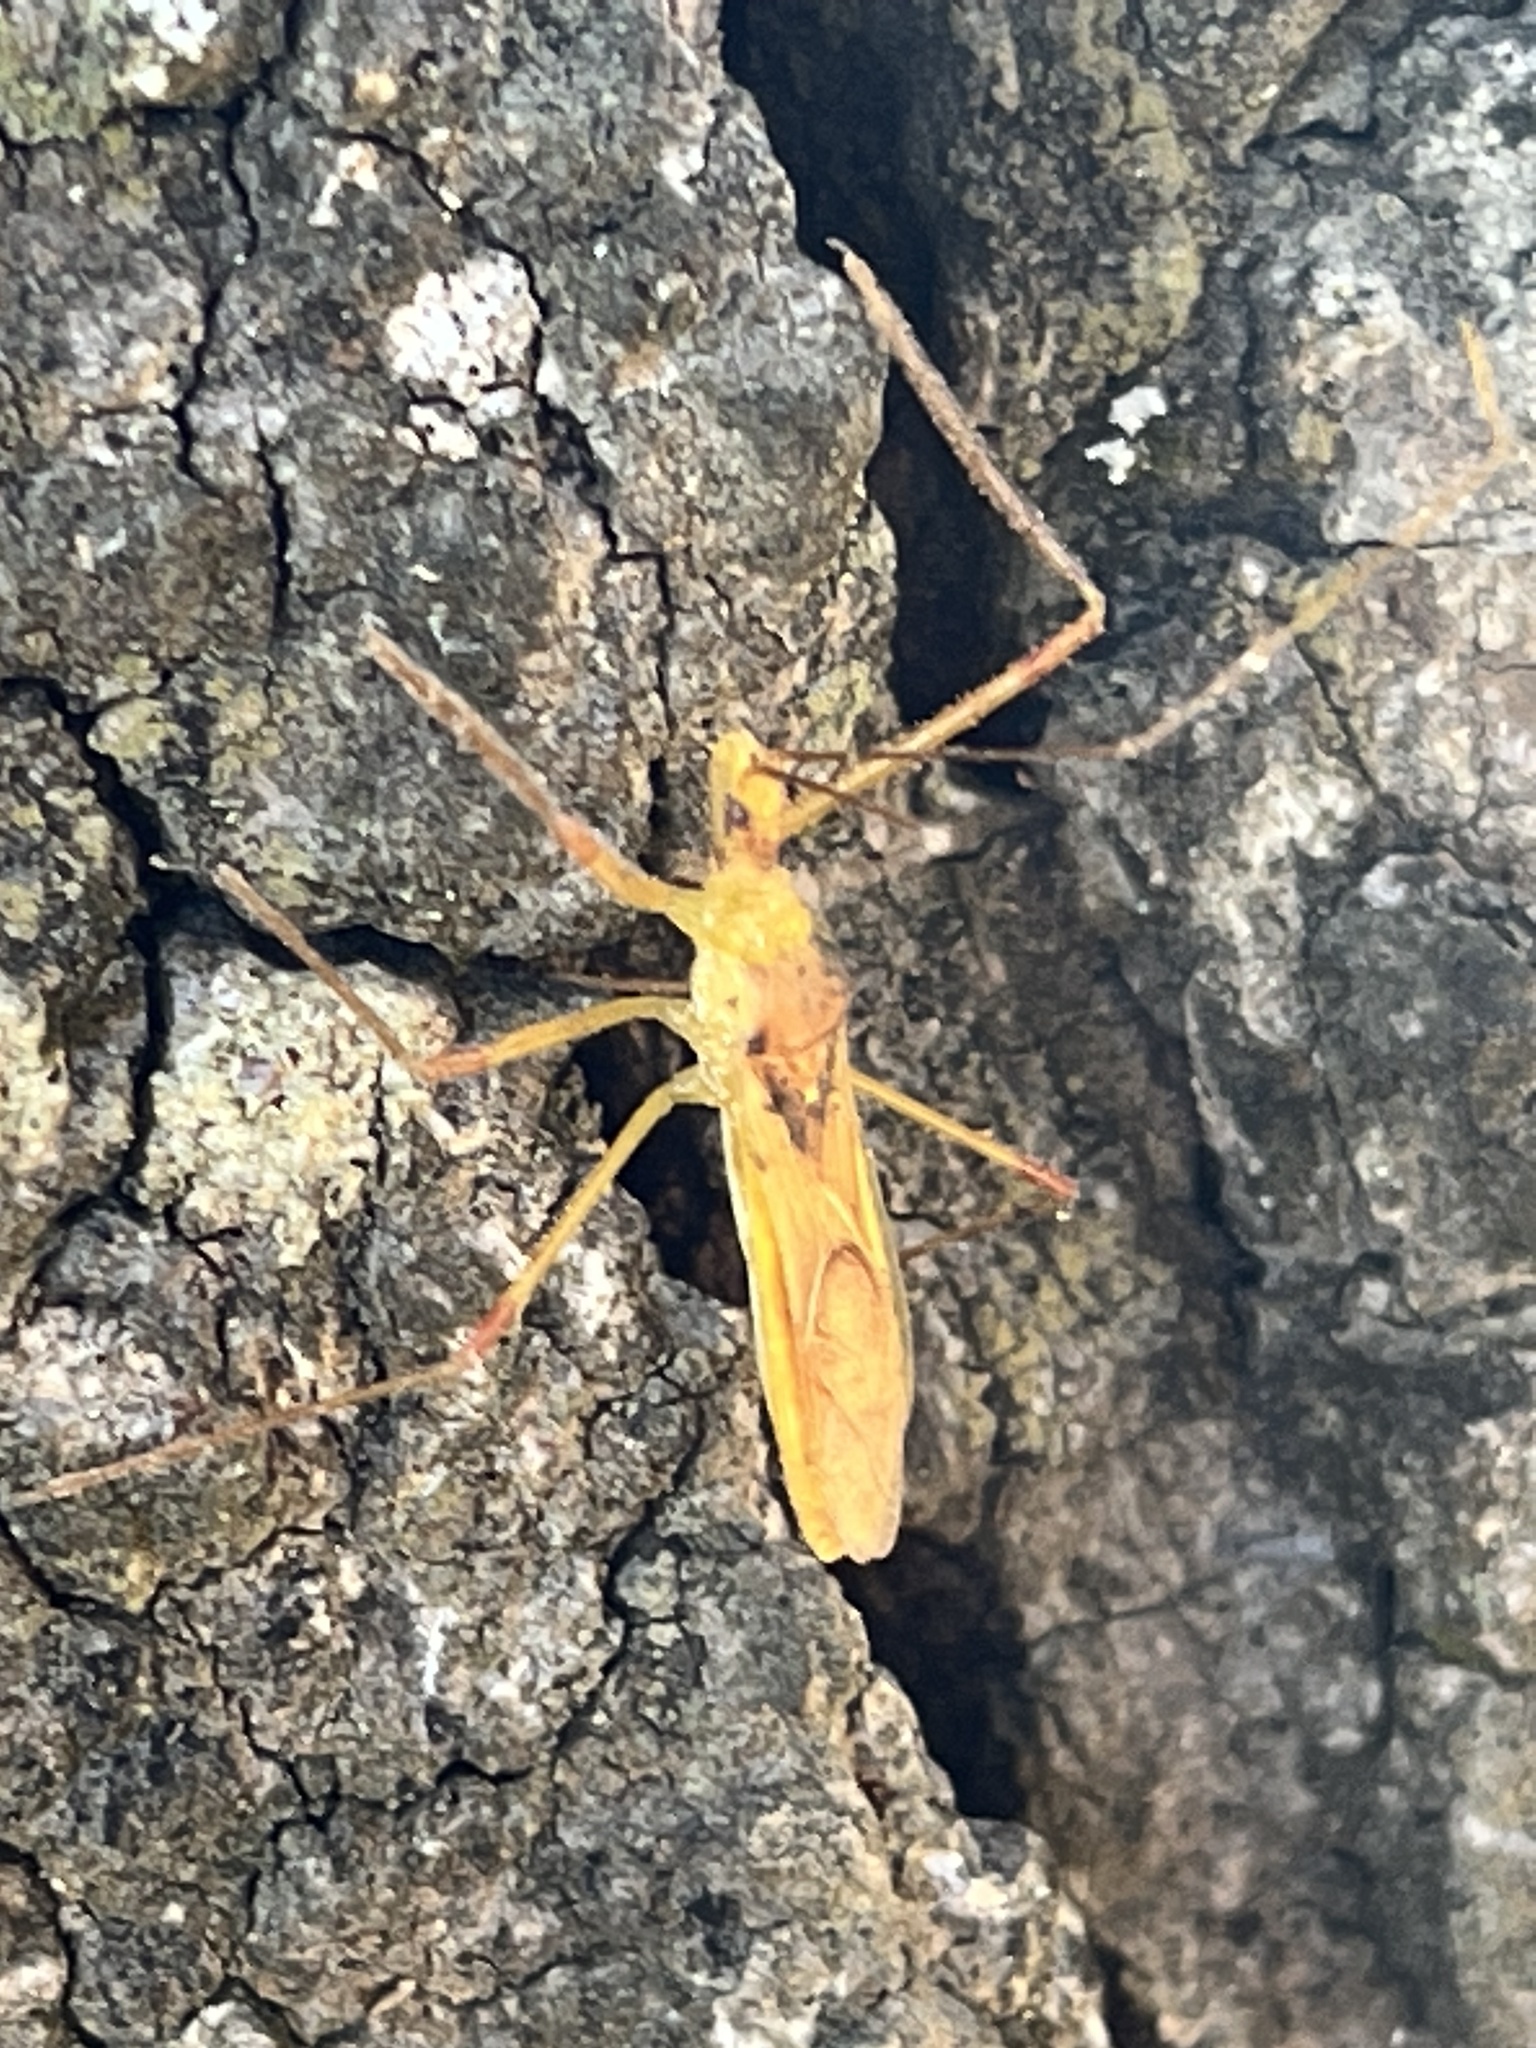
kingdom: Animalia
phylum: Arthropoda
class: Insecta
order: Hemiptera
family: Reduviidae
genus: Zelus
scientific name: Zelus luridus
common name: Pale green assassin bug
